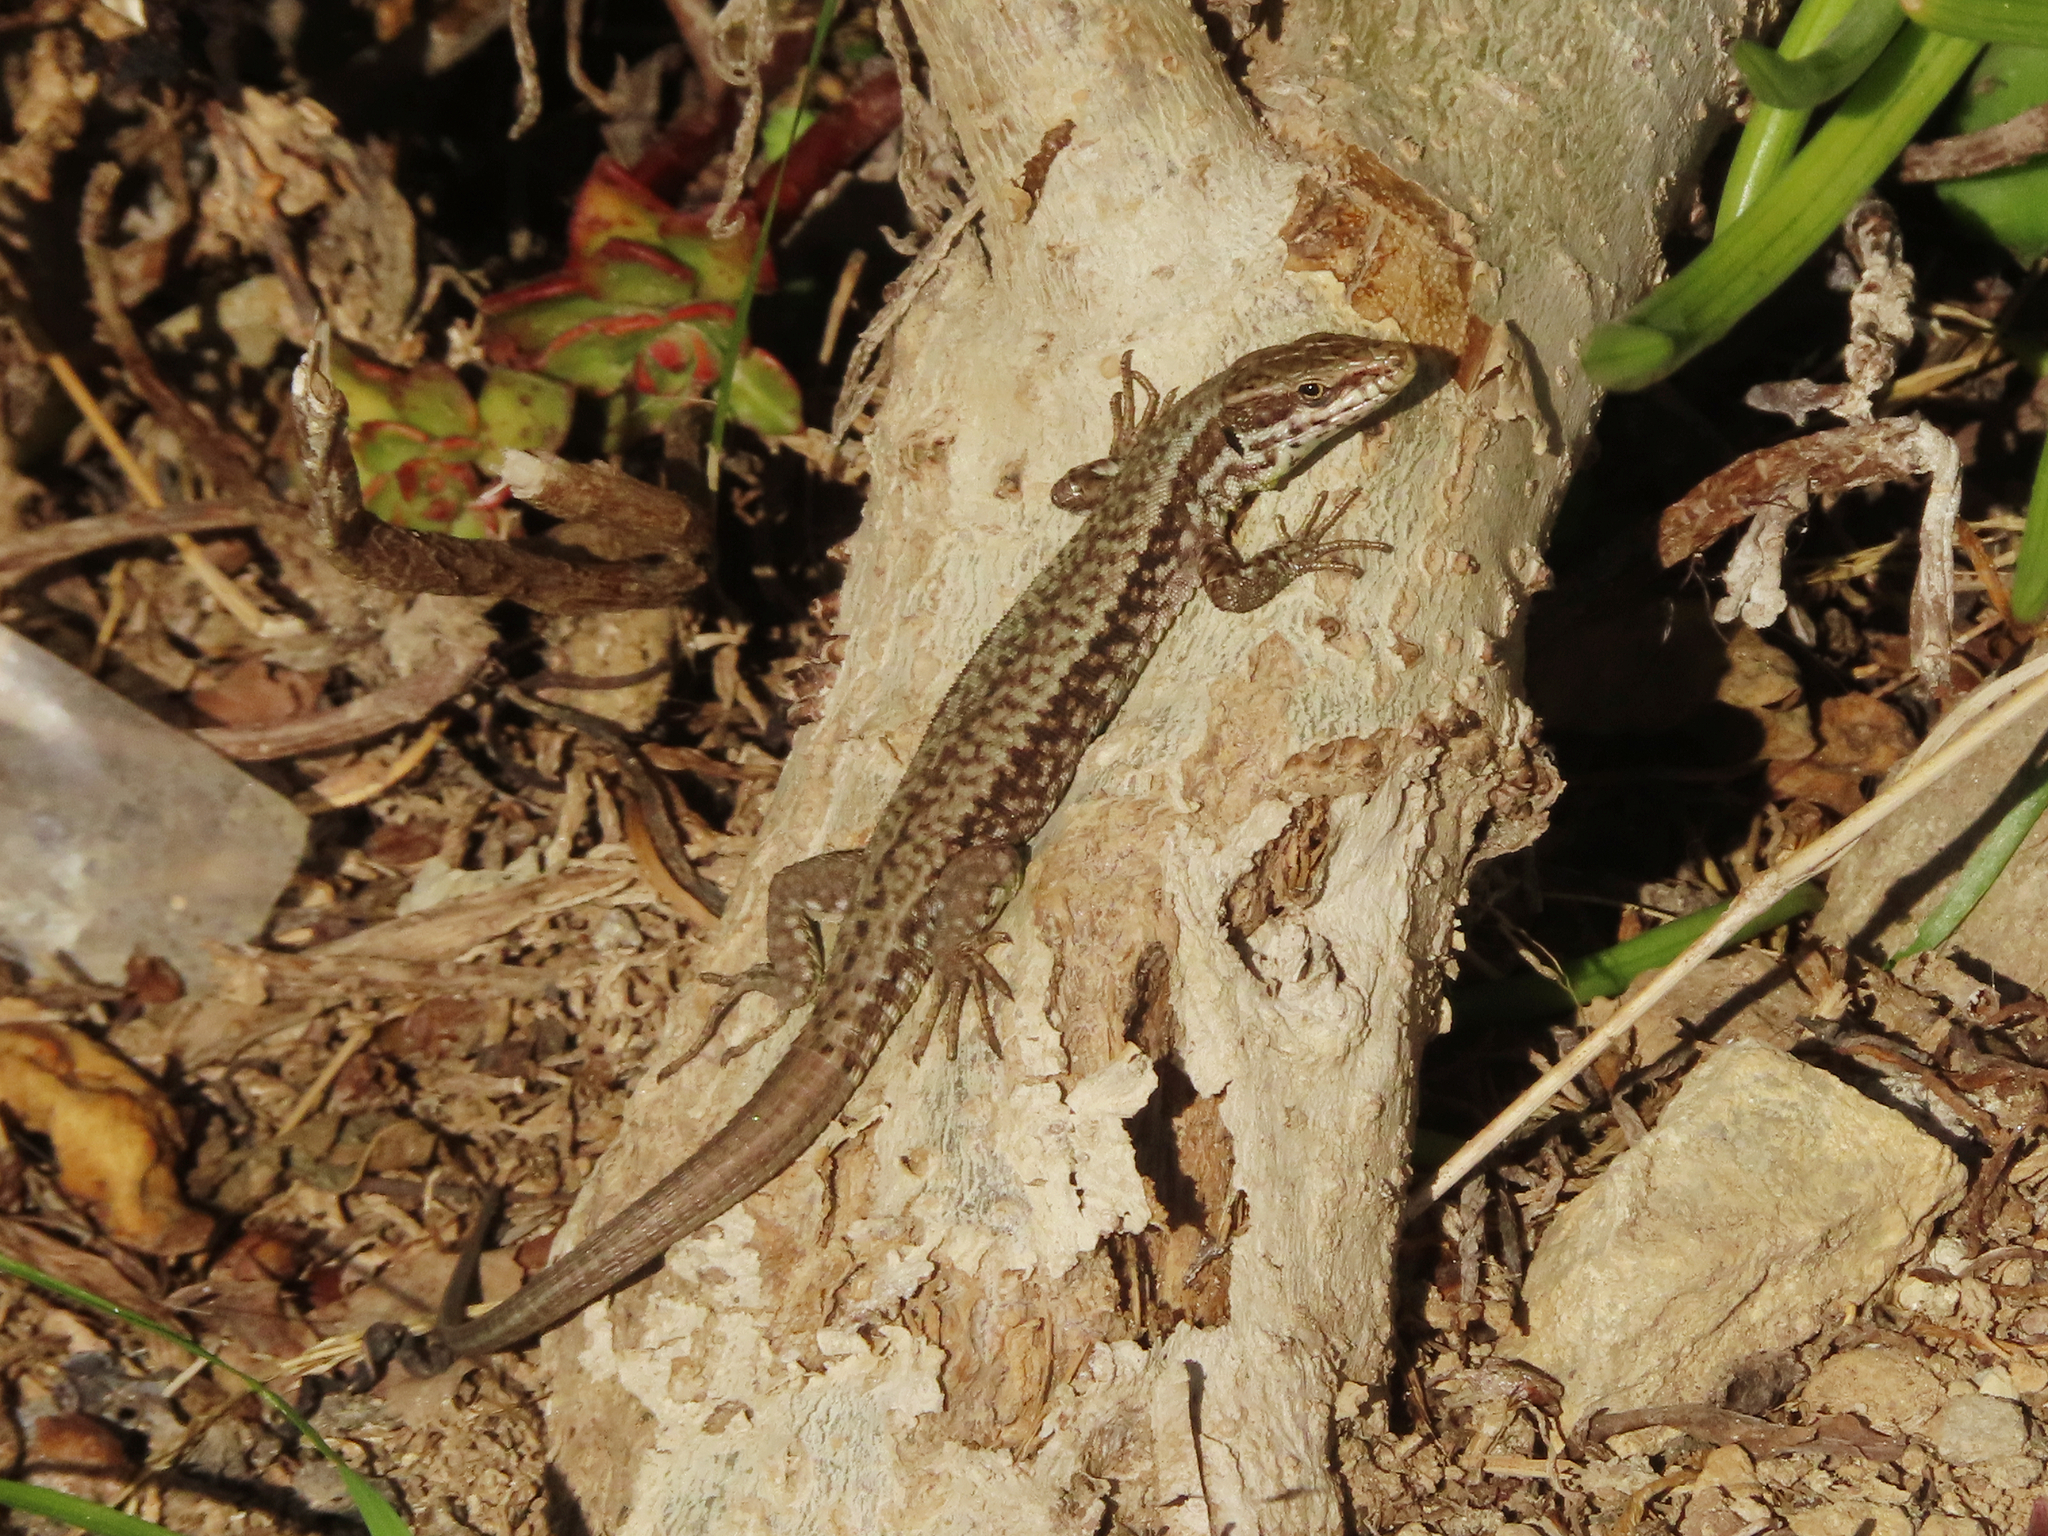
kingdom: Animalia
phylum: Chordata
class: Squamata
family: Lacertidae
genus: Podarcis
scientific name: Podarcis muralis
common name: Common wall lizard
